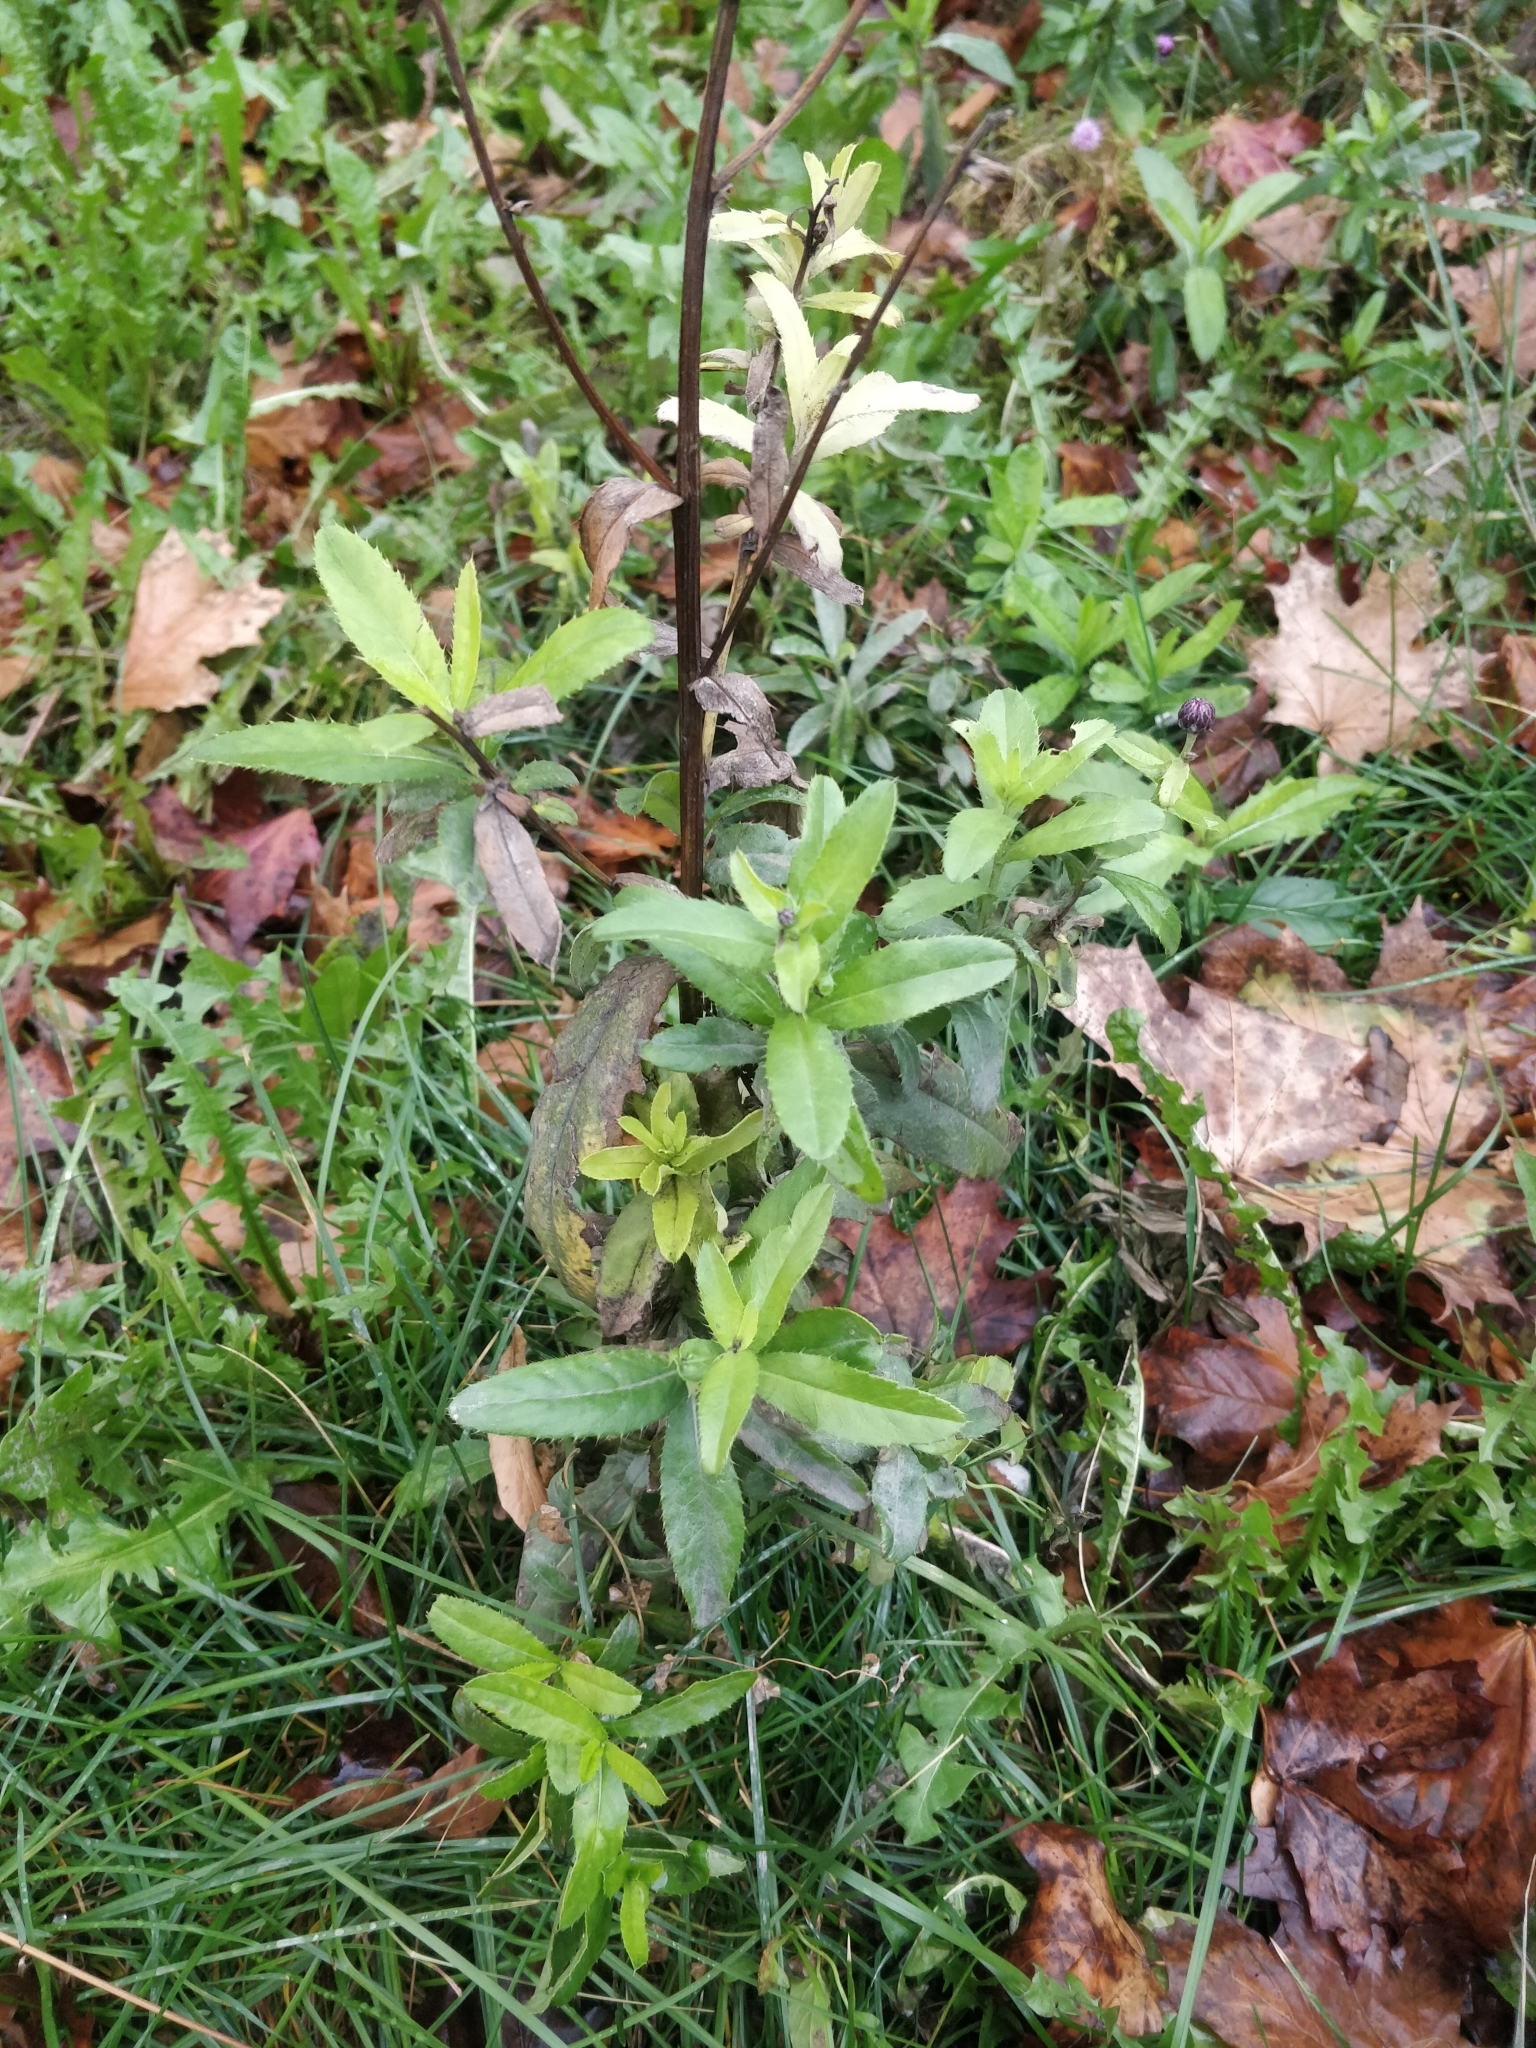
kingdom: Plantae
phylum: Tracheophyta
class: Magnoliopsida
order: Asterales
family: Asteraceae
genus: Cirsium
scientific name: Cirsium arvense
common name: Creeping thistle
